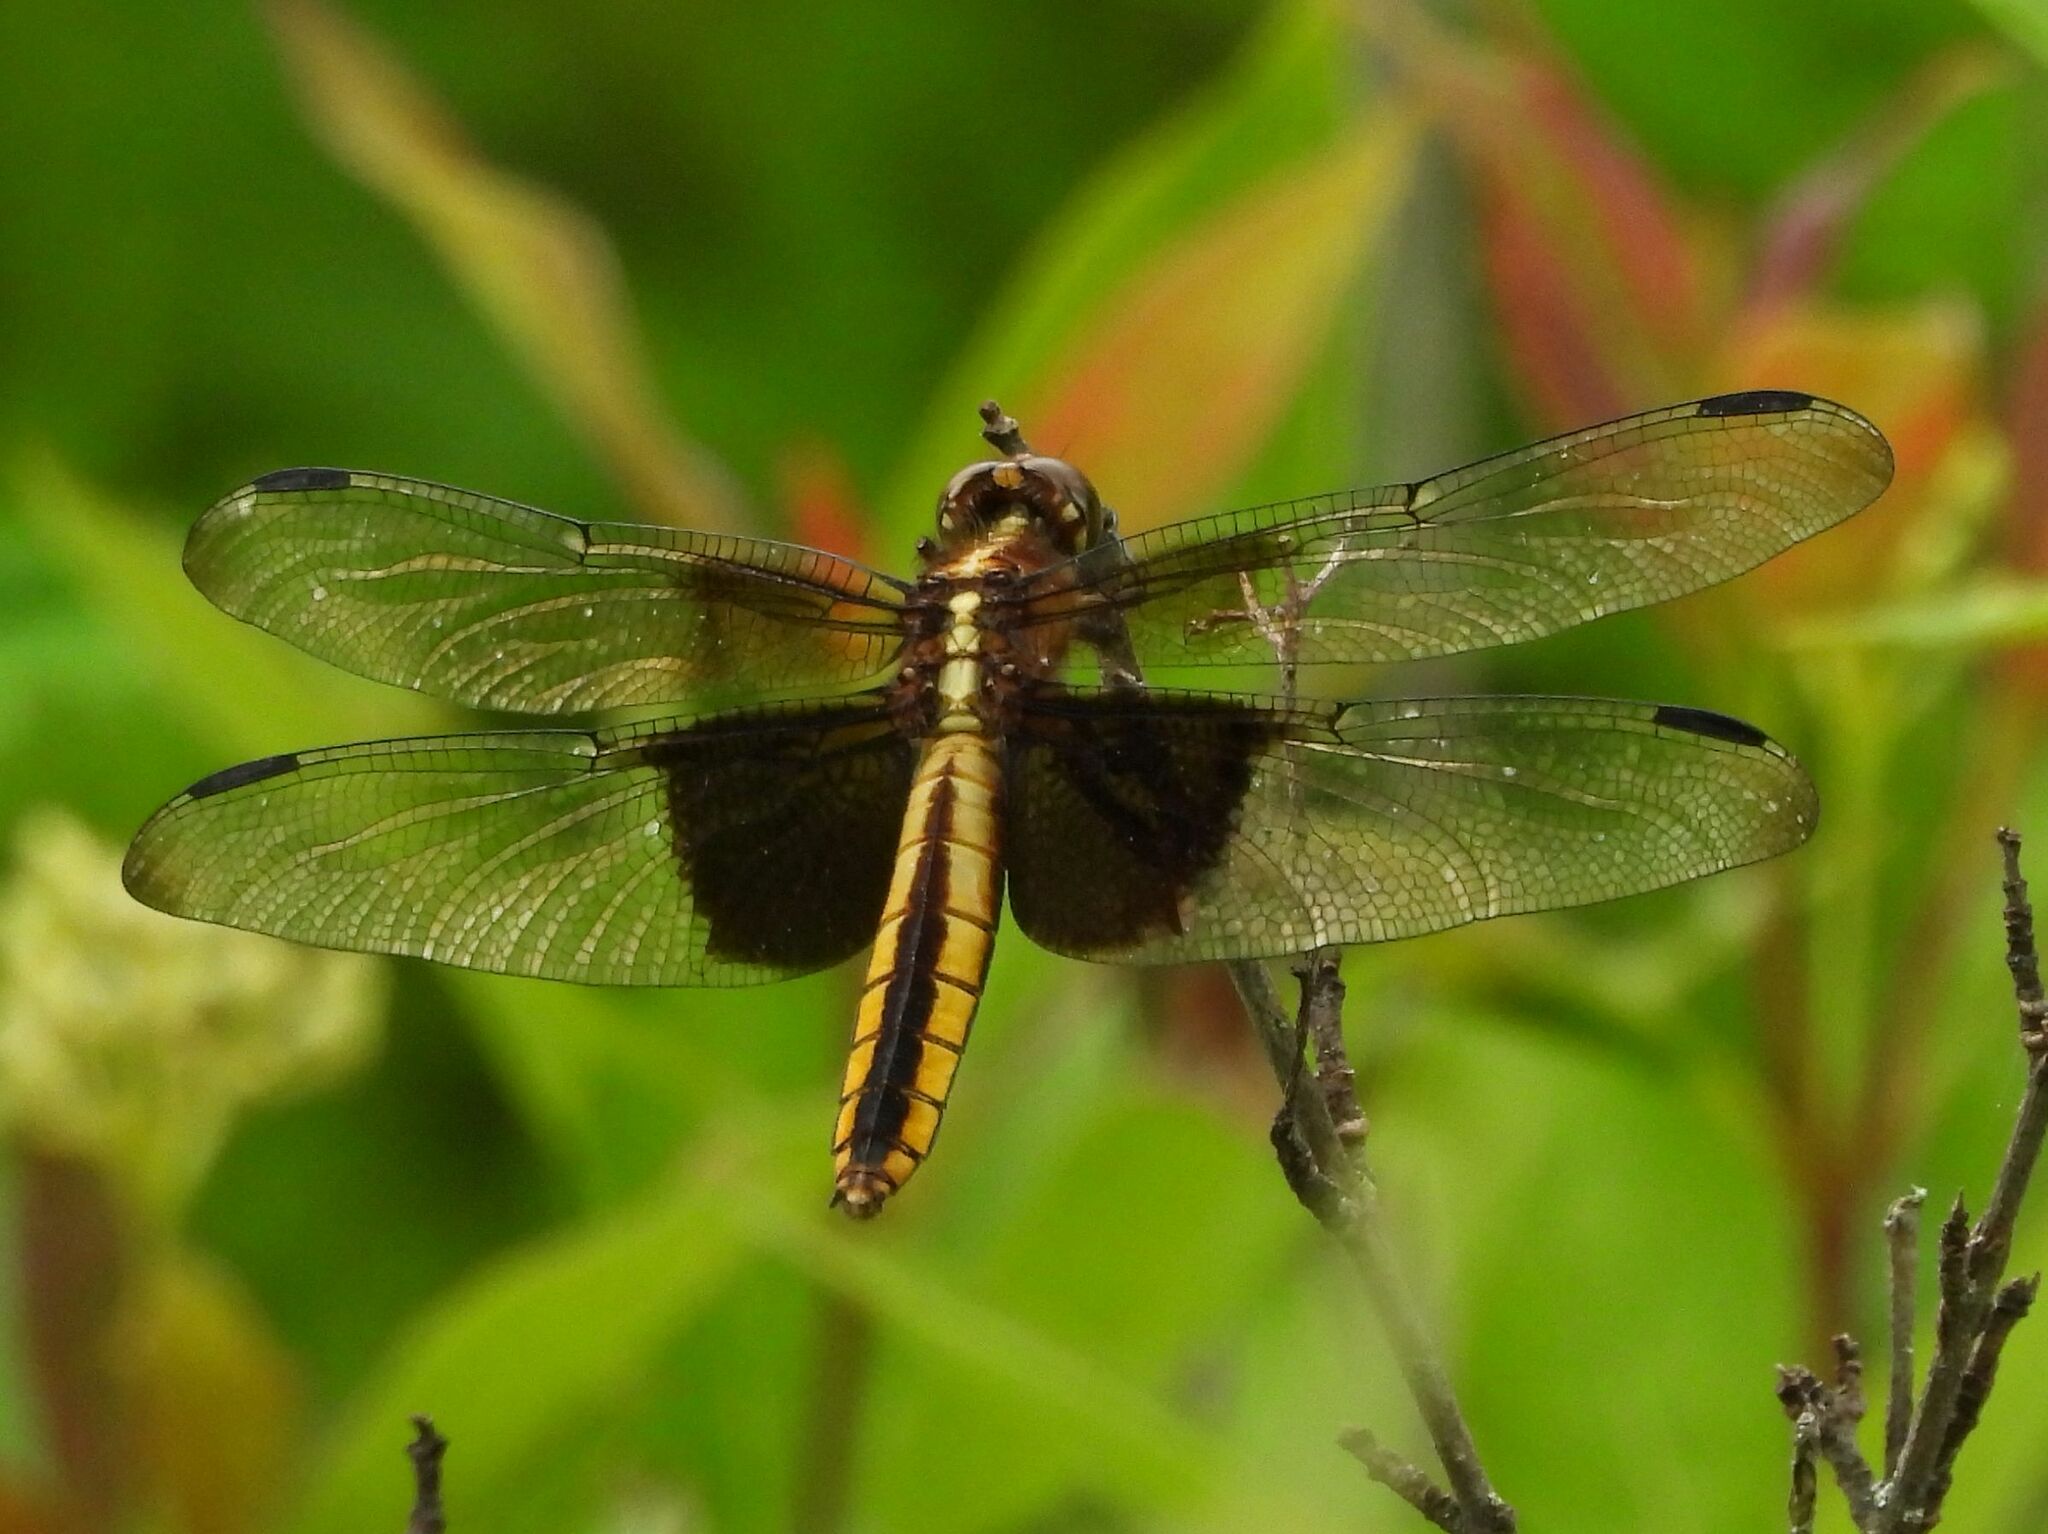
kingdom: Animalia
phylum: Arthropoda
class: Insecta
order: Odonata
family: Libellulidae
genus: Libellula
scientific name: Libellula luctuosa
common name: Widow skimmer
